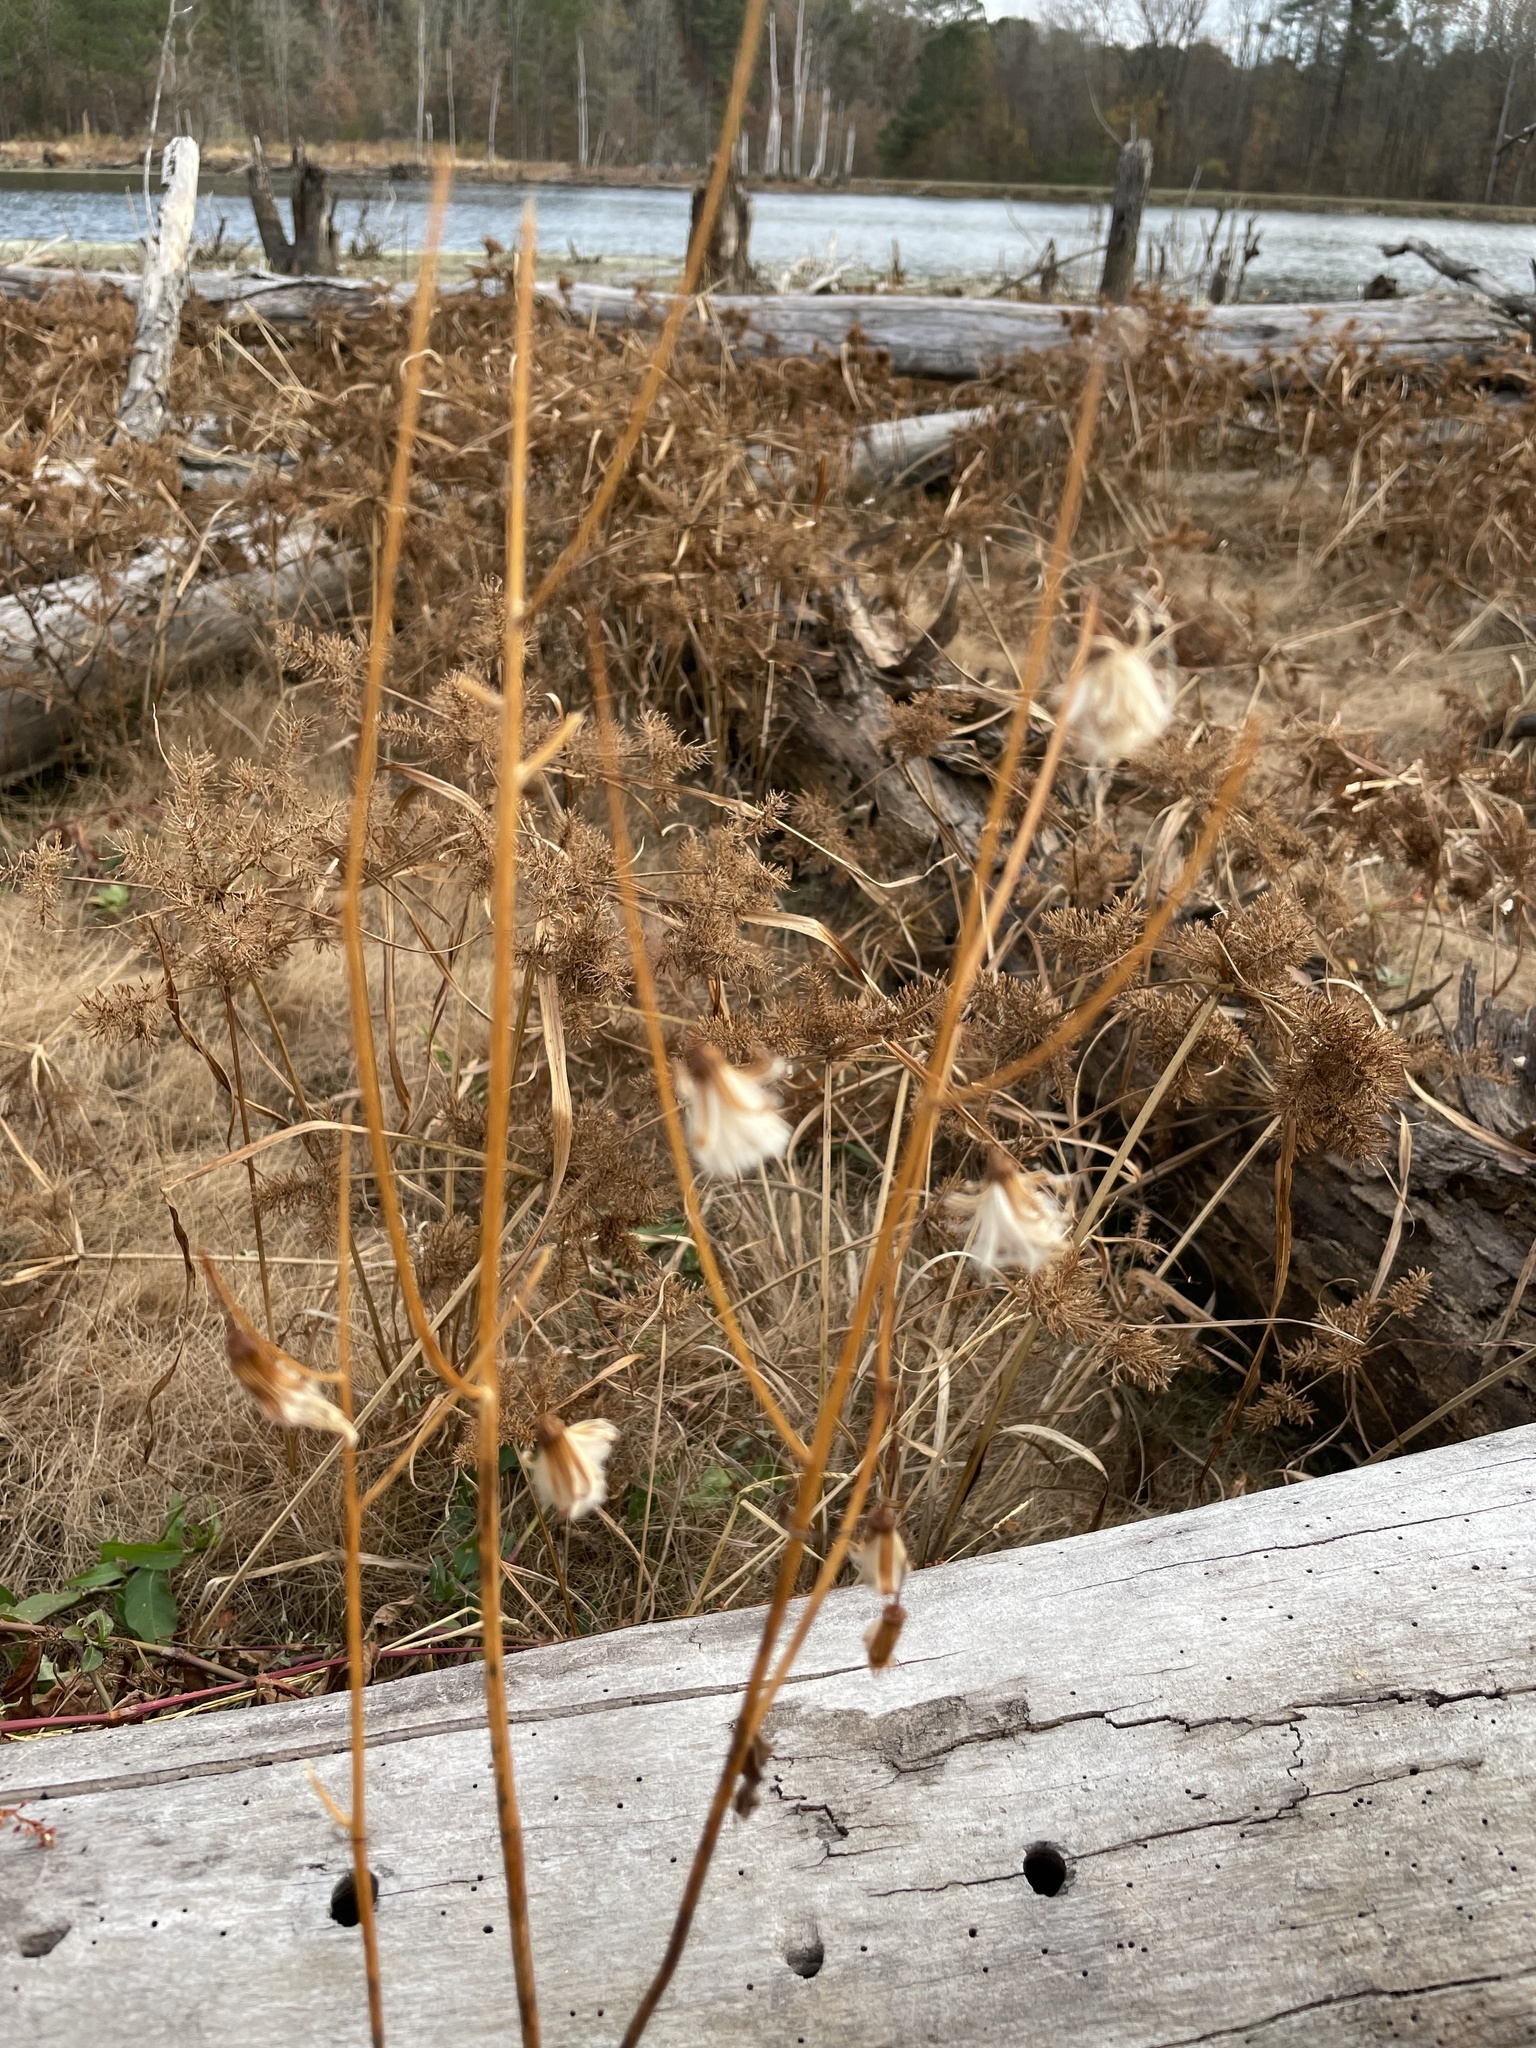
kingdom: Plantae
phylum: Tracheophyta
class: Magnoliopsida
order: Asterales
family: Asteraceae
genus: Erechtites
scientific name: Erechtites hieraciifolius
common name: American burnweed
